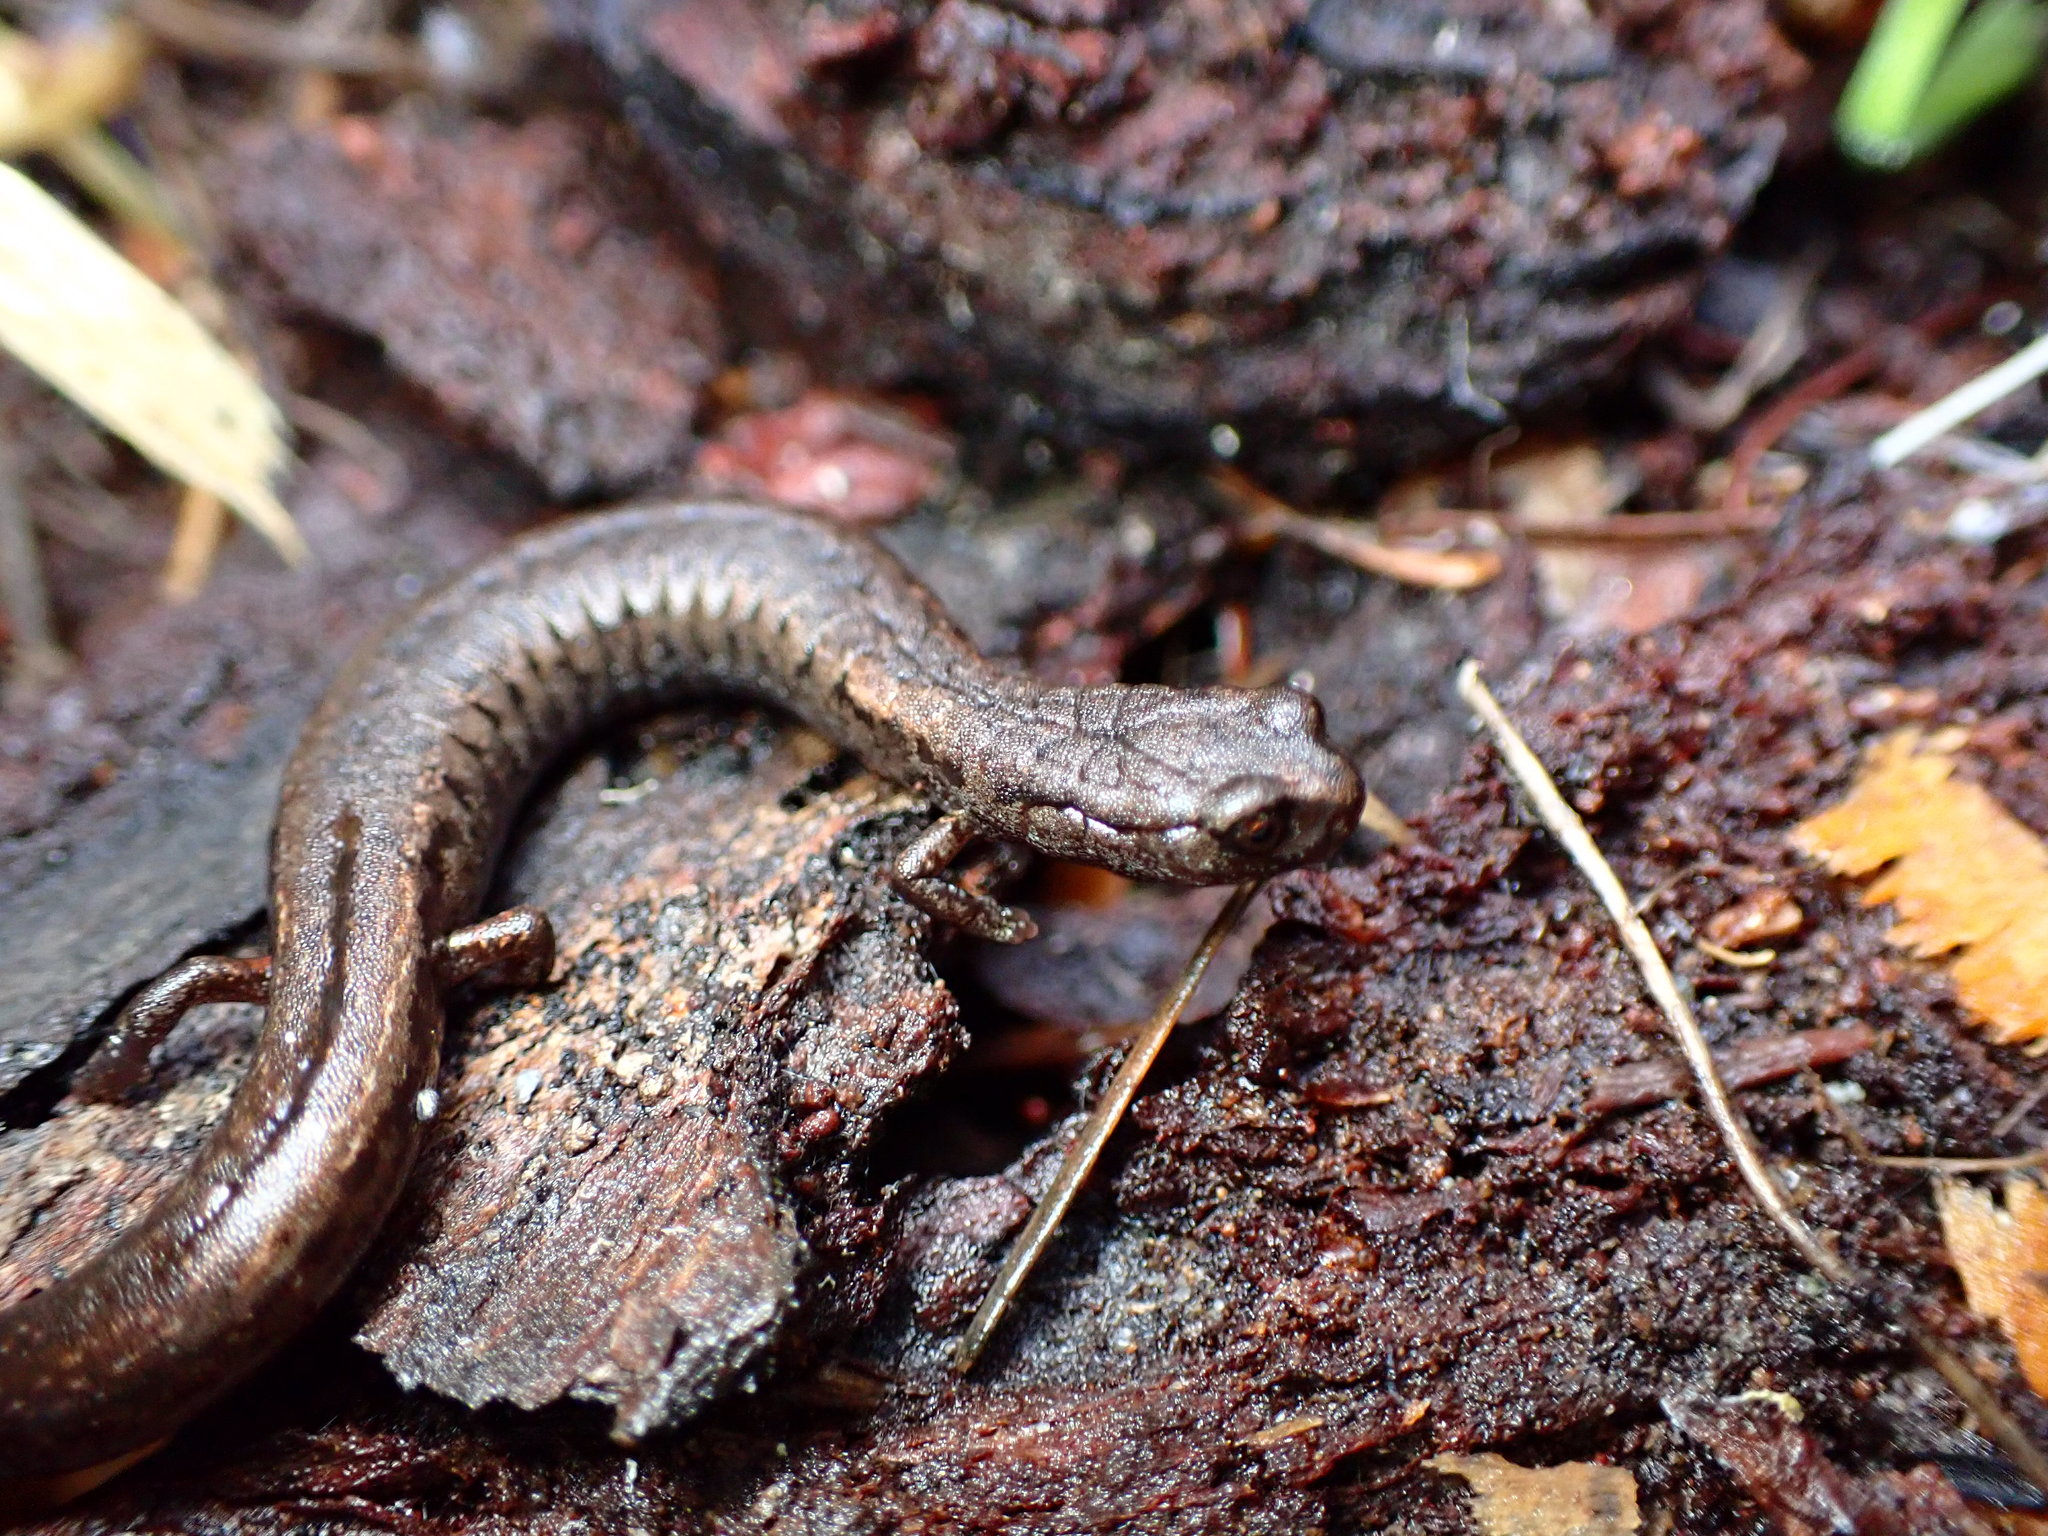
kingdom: Animalia
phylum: Chordata
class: Amphibia
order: Caudata
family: Plethodontidae
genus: Batrachoseps
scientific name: Batrachoseps attenuatus
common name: California slender salamander
